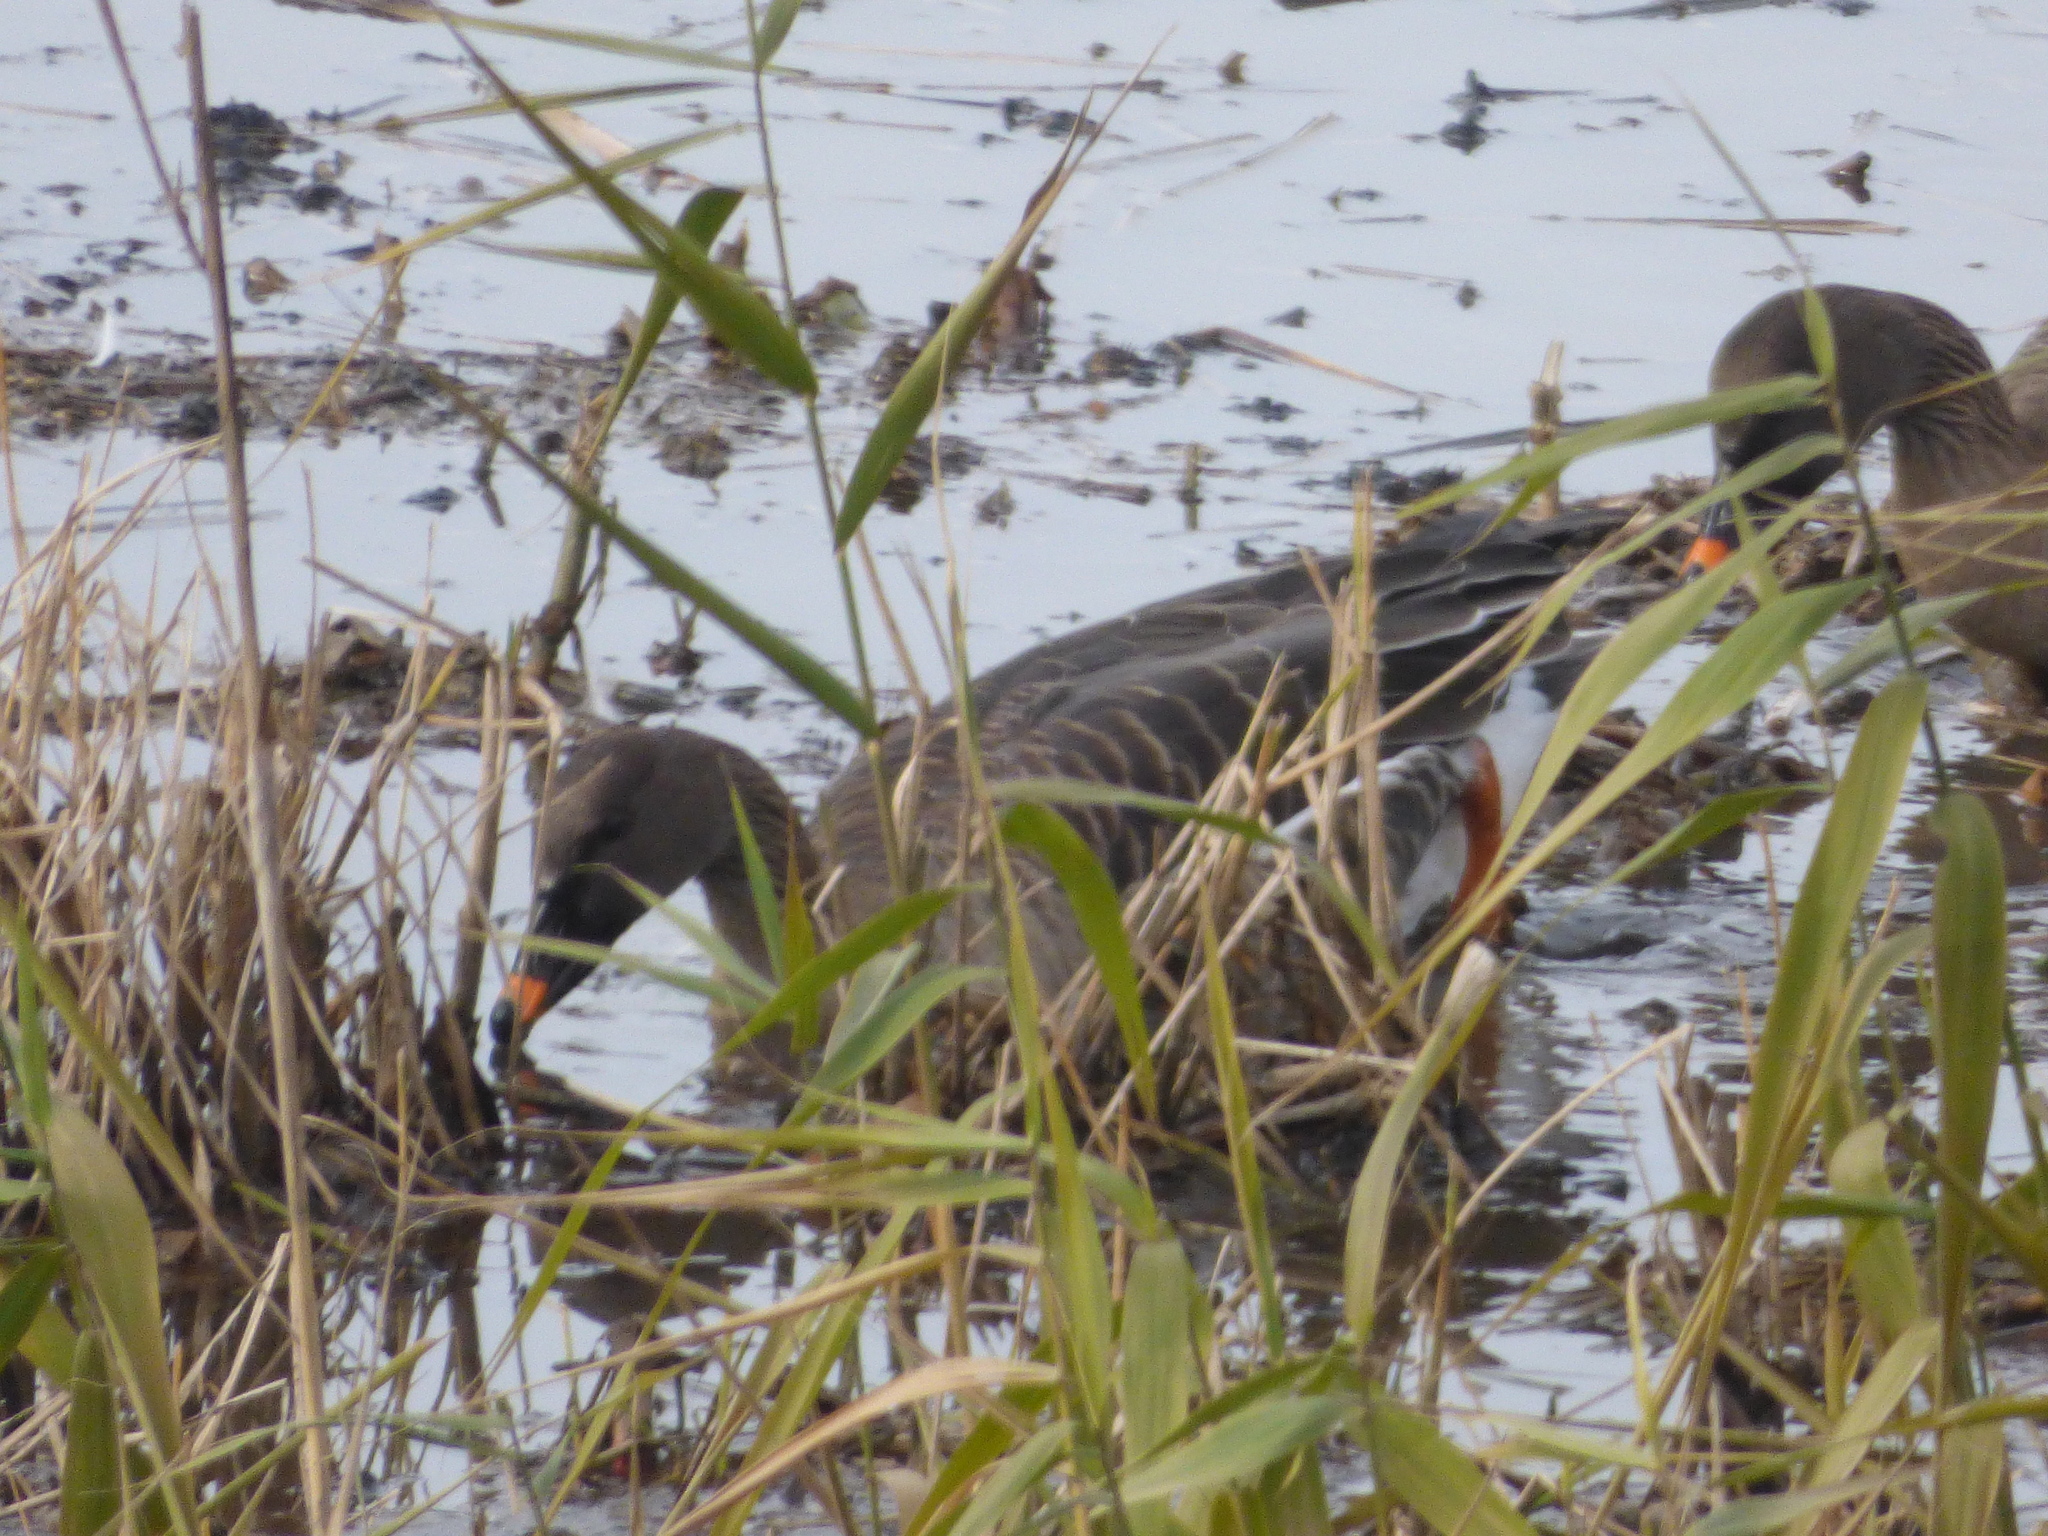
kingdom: Animalia
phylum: Chordata
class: Aves
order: Anseriformes
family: Anatidae
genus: Anser
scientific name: Anser fabalis
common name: Bean goose
